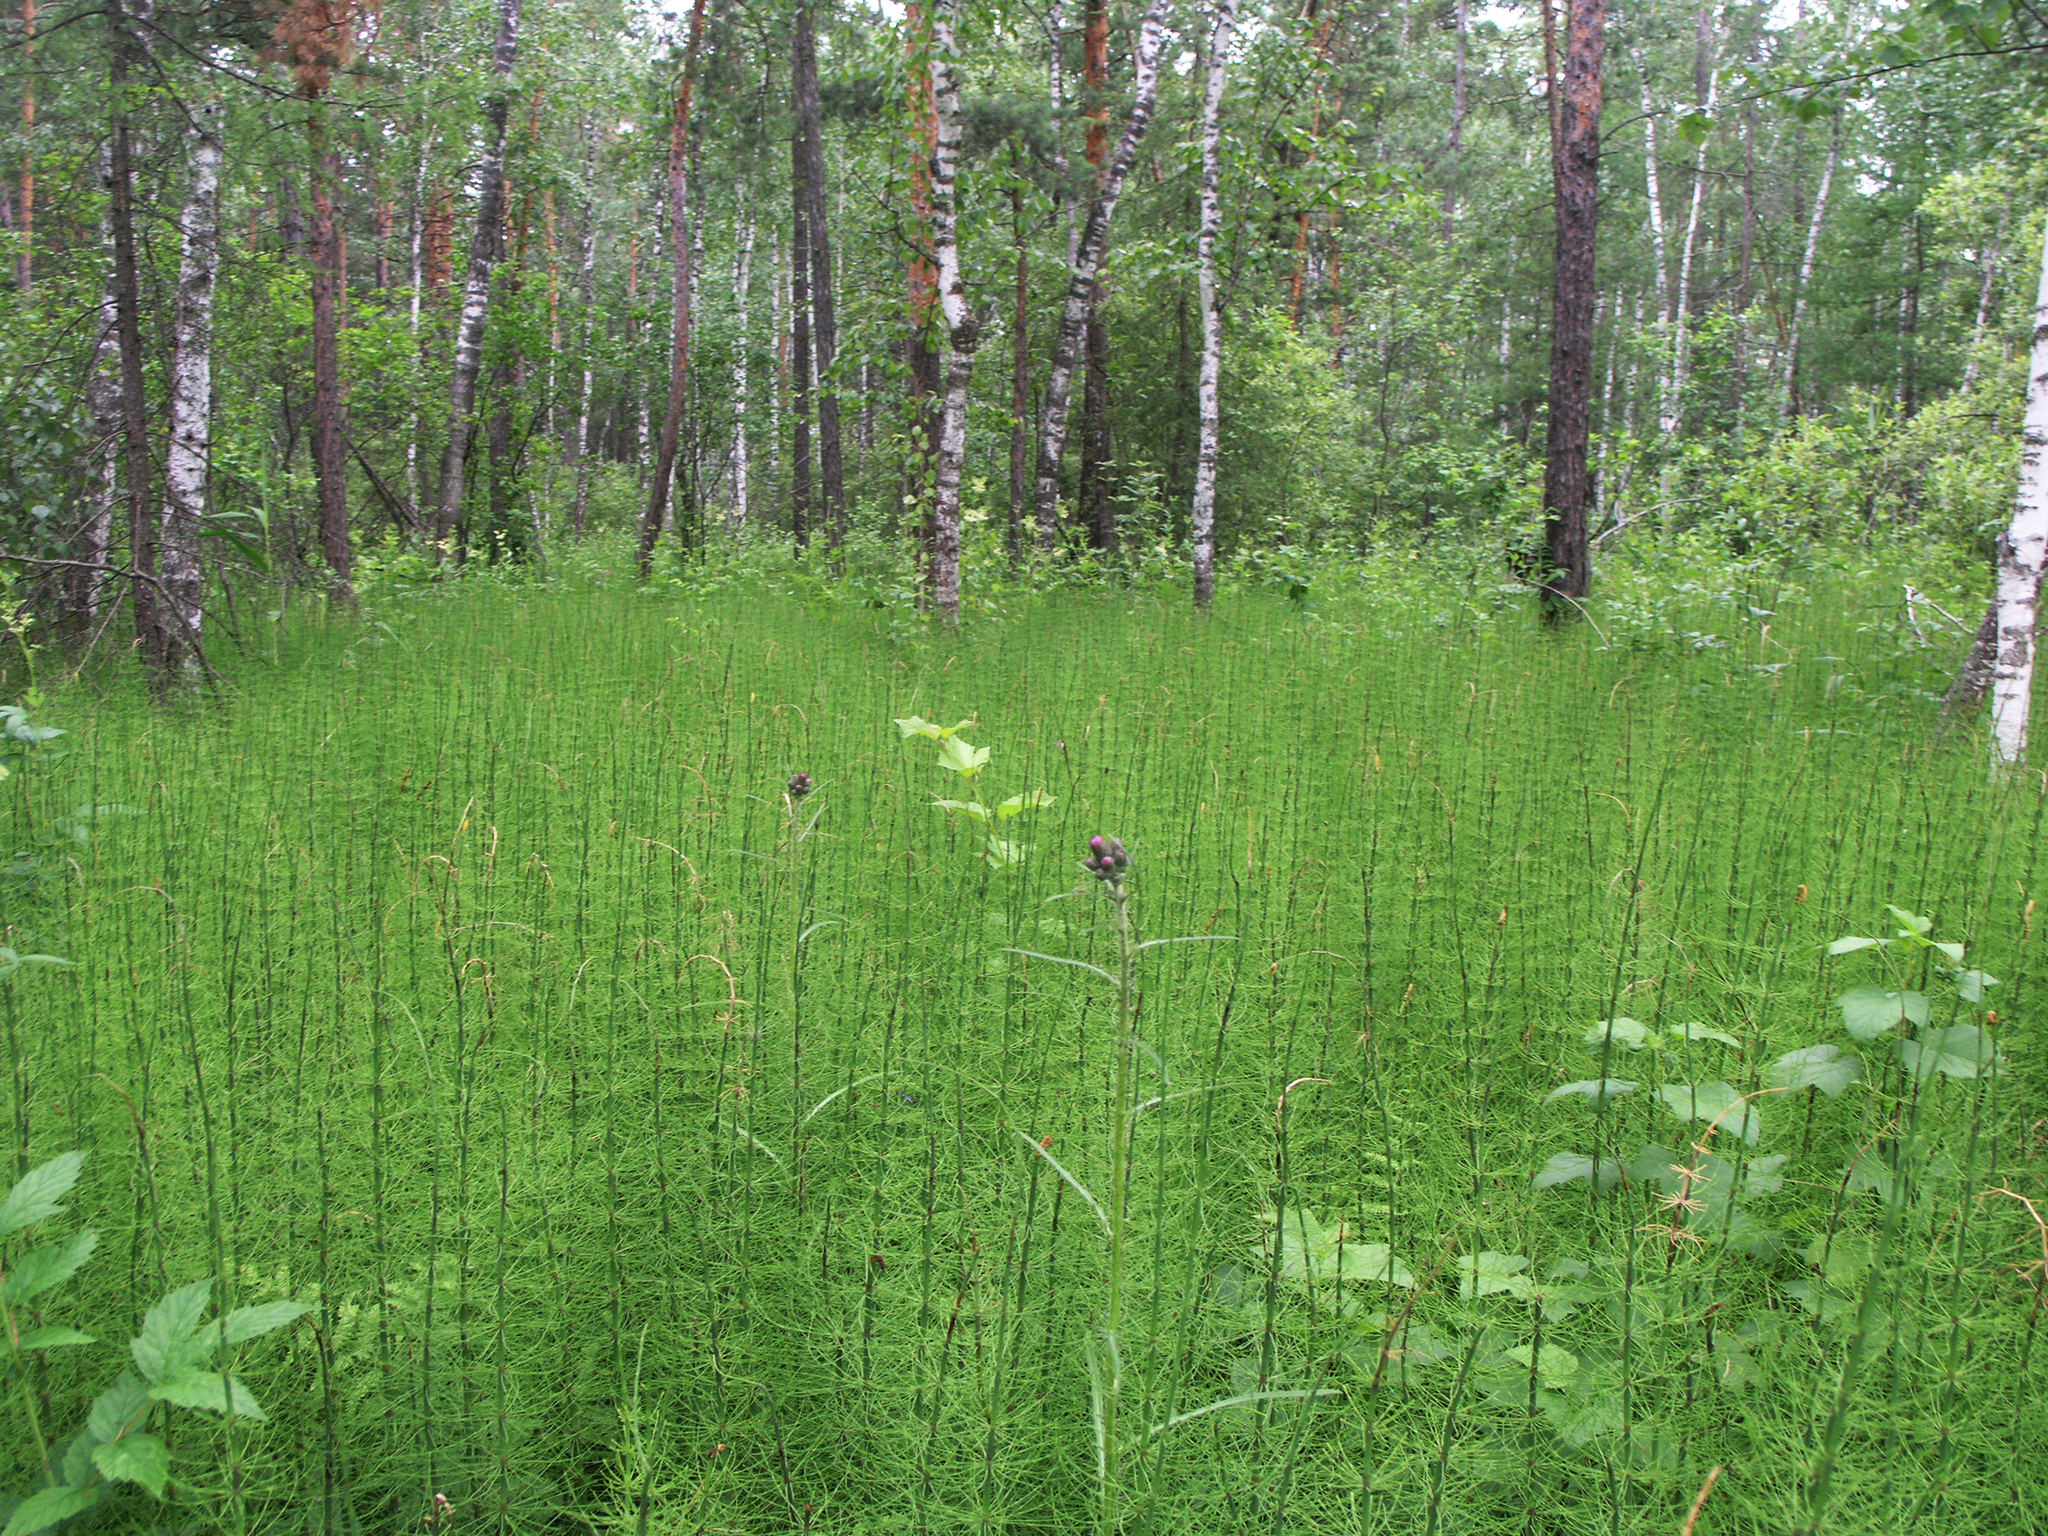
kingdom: Plantae
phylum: Tracheophyta
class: Polypodiopsida
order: Equisetales
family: Equisetaceae
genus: Equisetum
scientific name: Equisetum fluviatile
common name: Water horsetail
